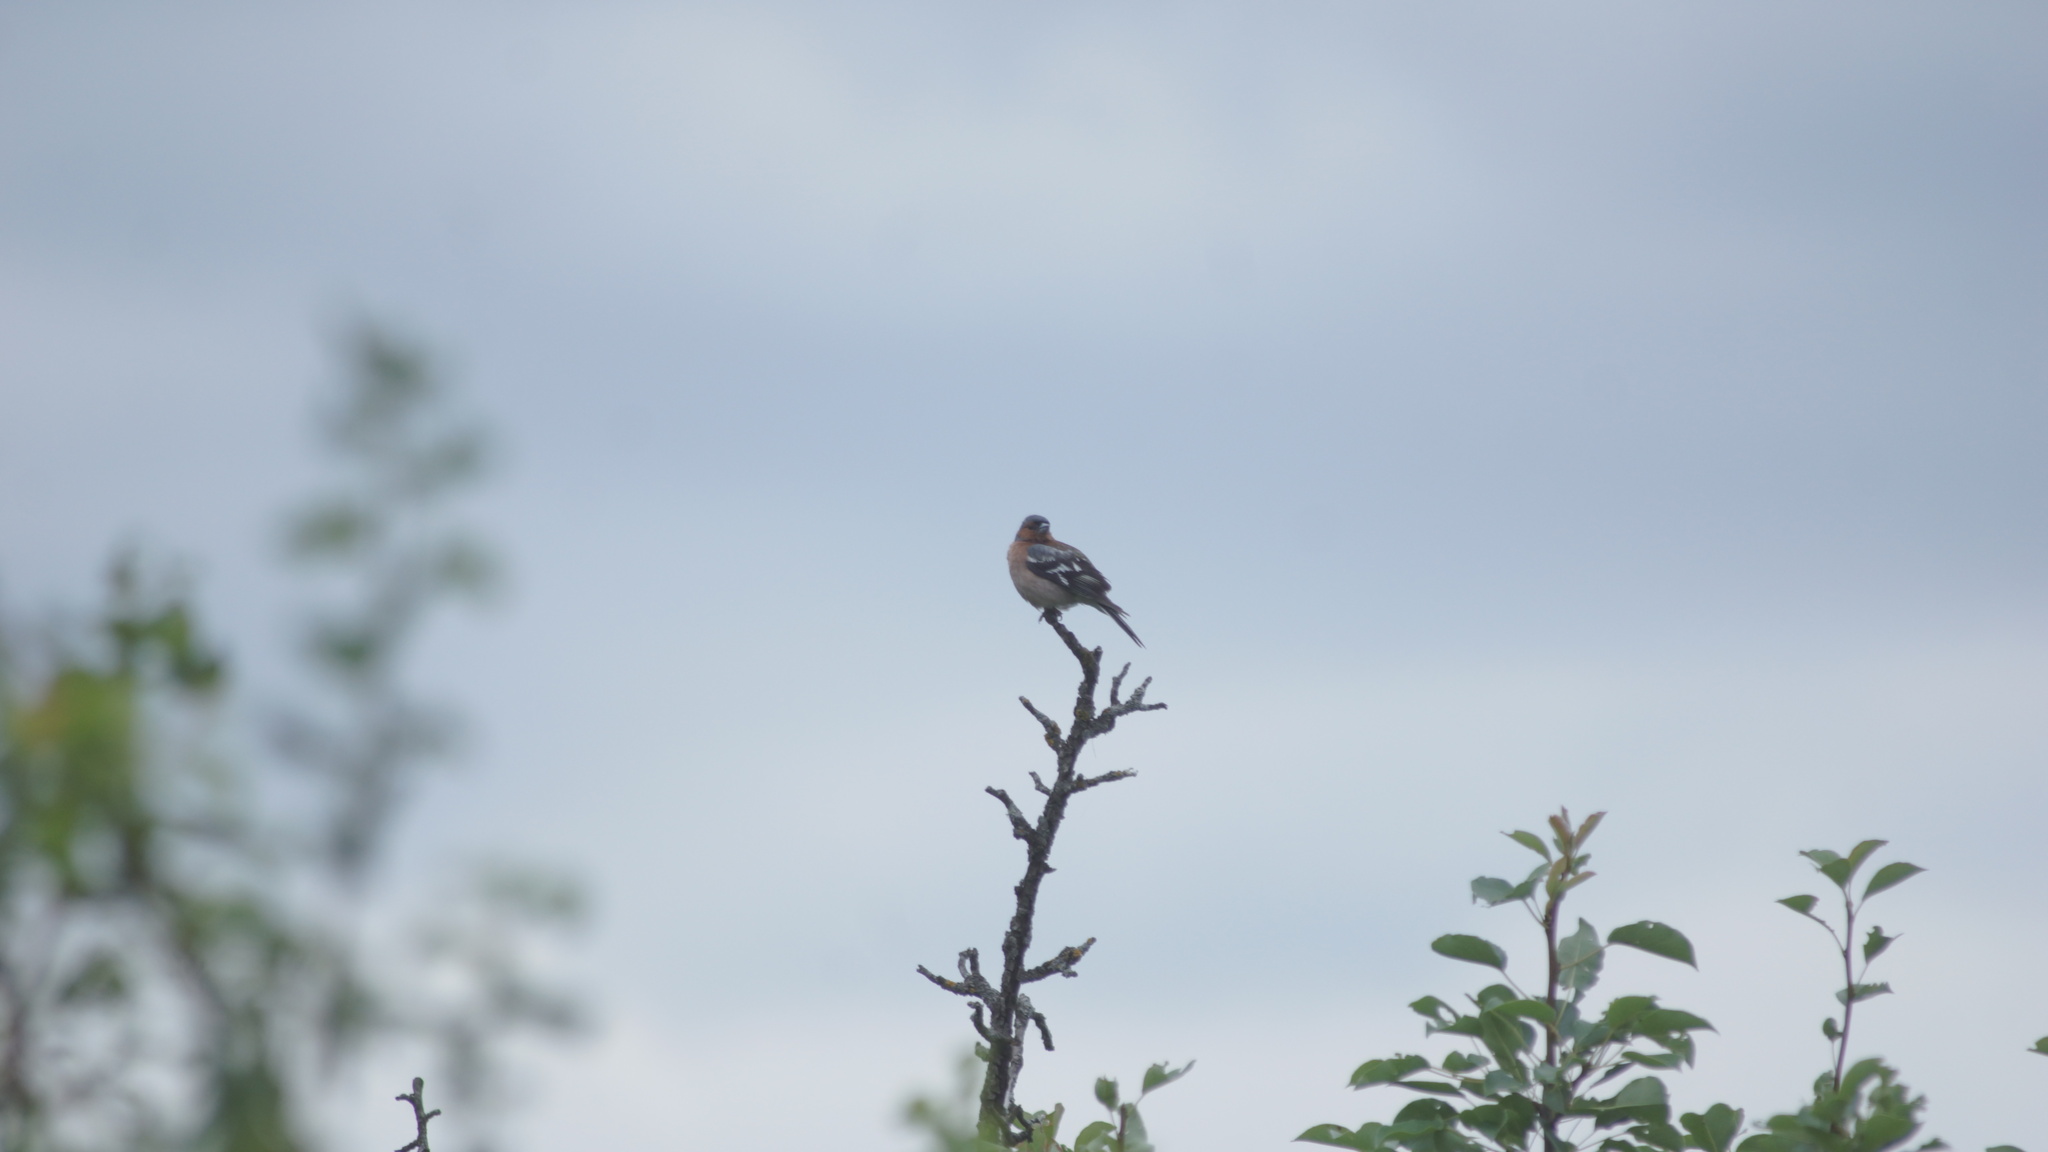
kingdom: Animalia
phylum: Chordata
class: Aves
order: Passeriformes
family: Fringillidae
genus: Fringilla
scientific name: Fringilla coelebs
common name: Common chaffinch
